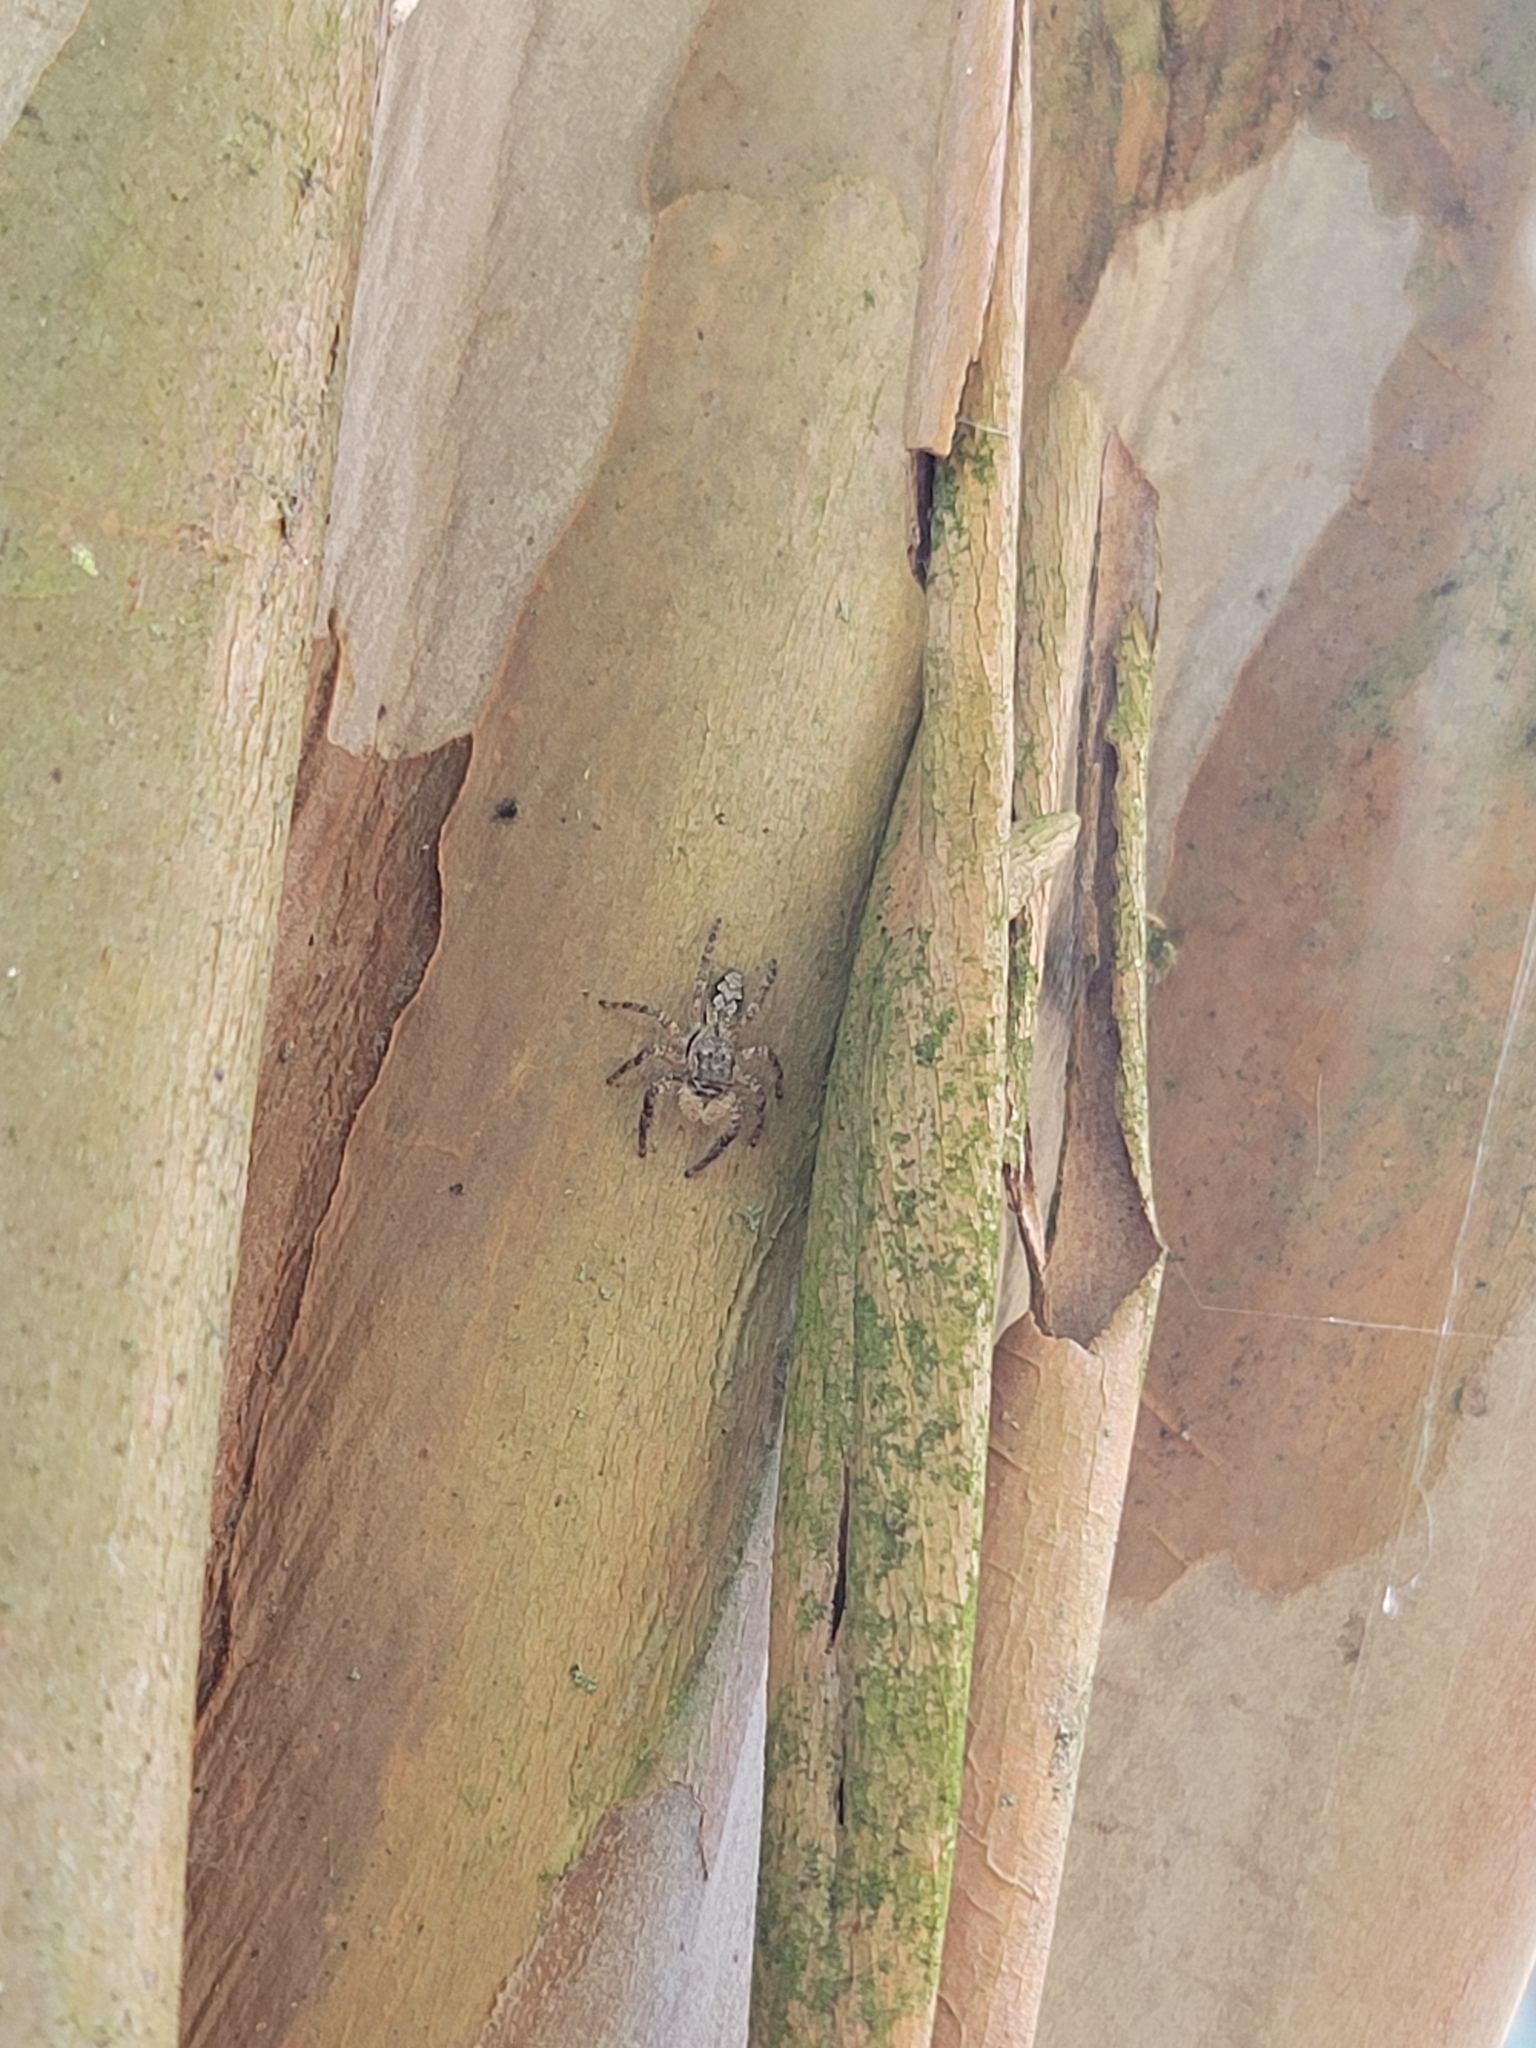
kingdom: Animalia
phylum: Arthropoda
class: Arachnida
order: Araneae
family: Salticidae
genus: Platycryptus
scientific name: Platycryptus undatus
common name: Tan jumping spider
